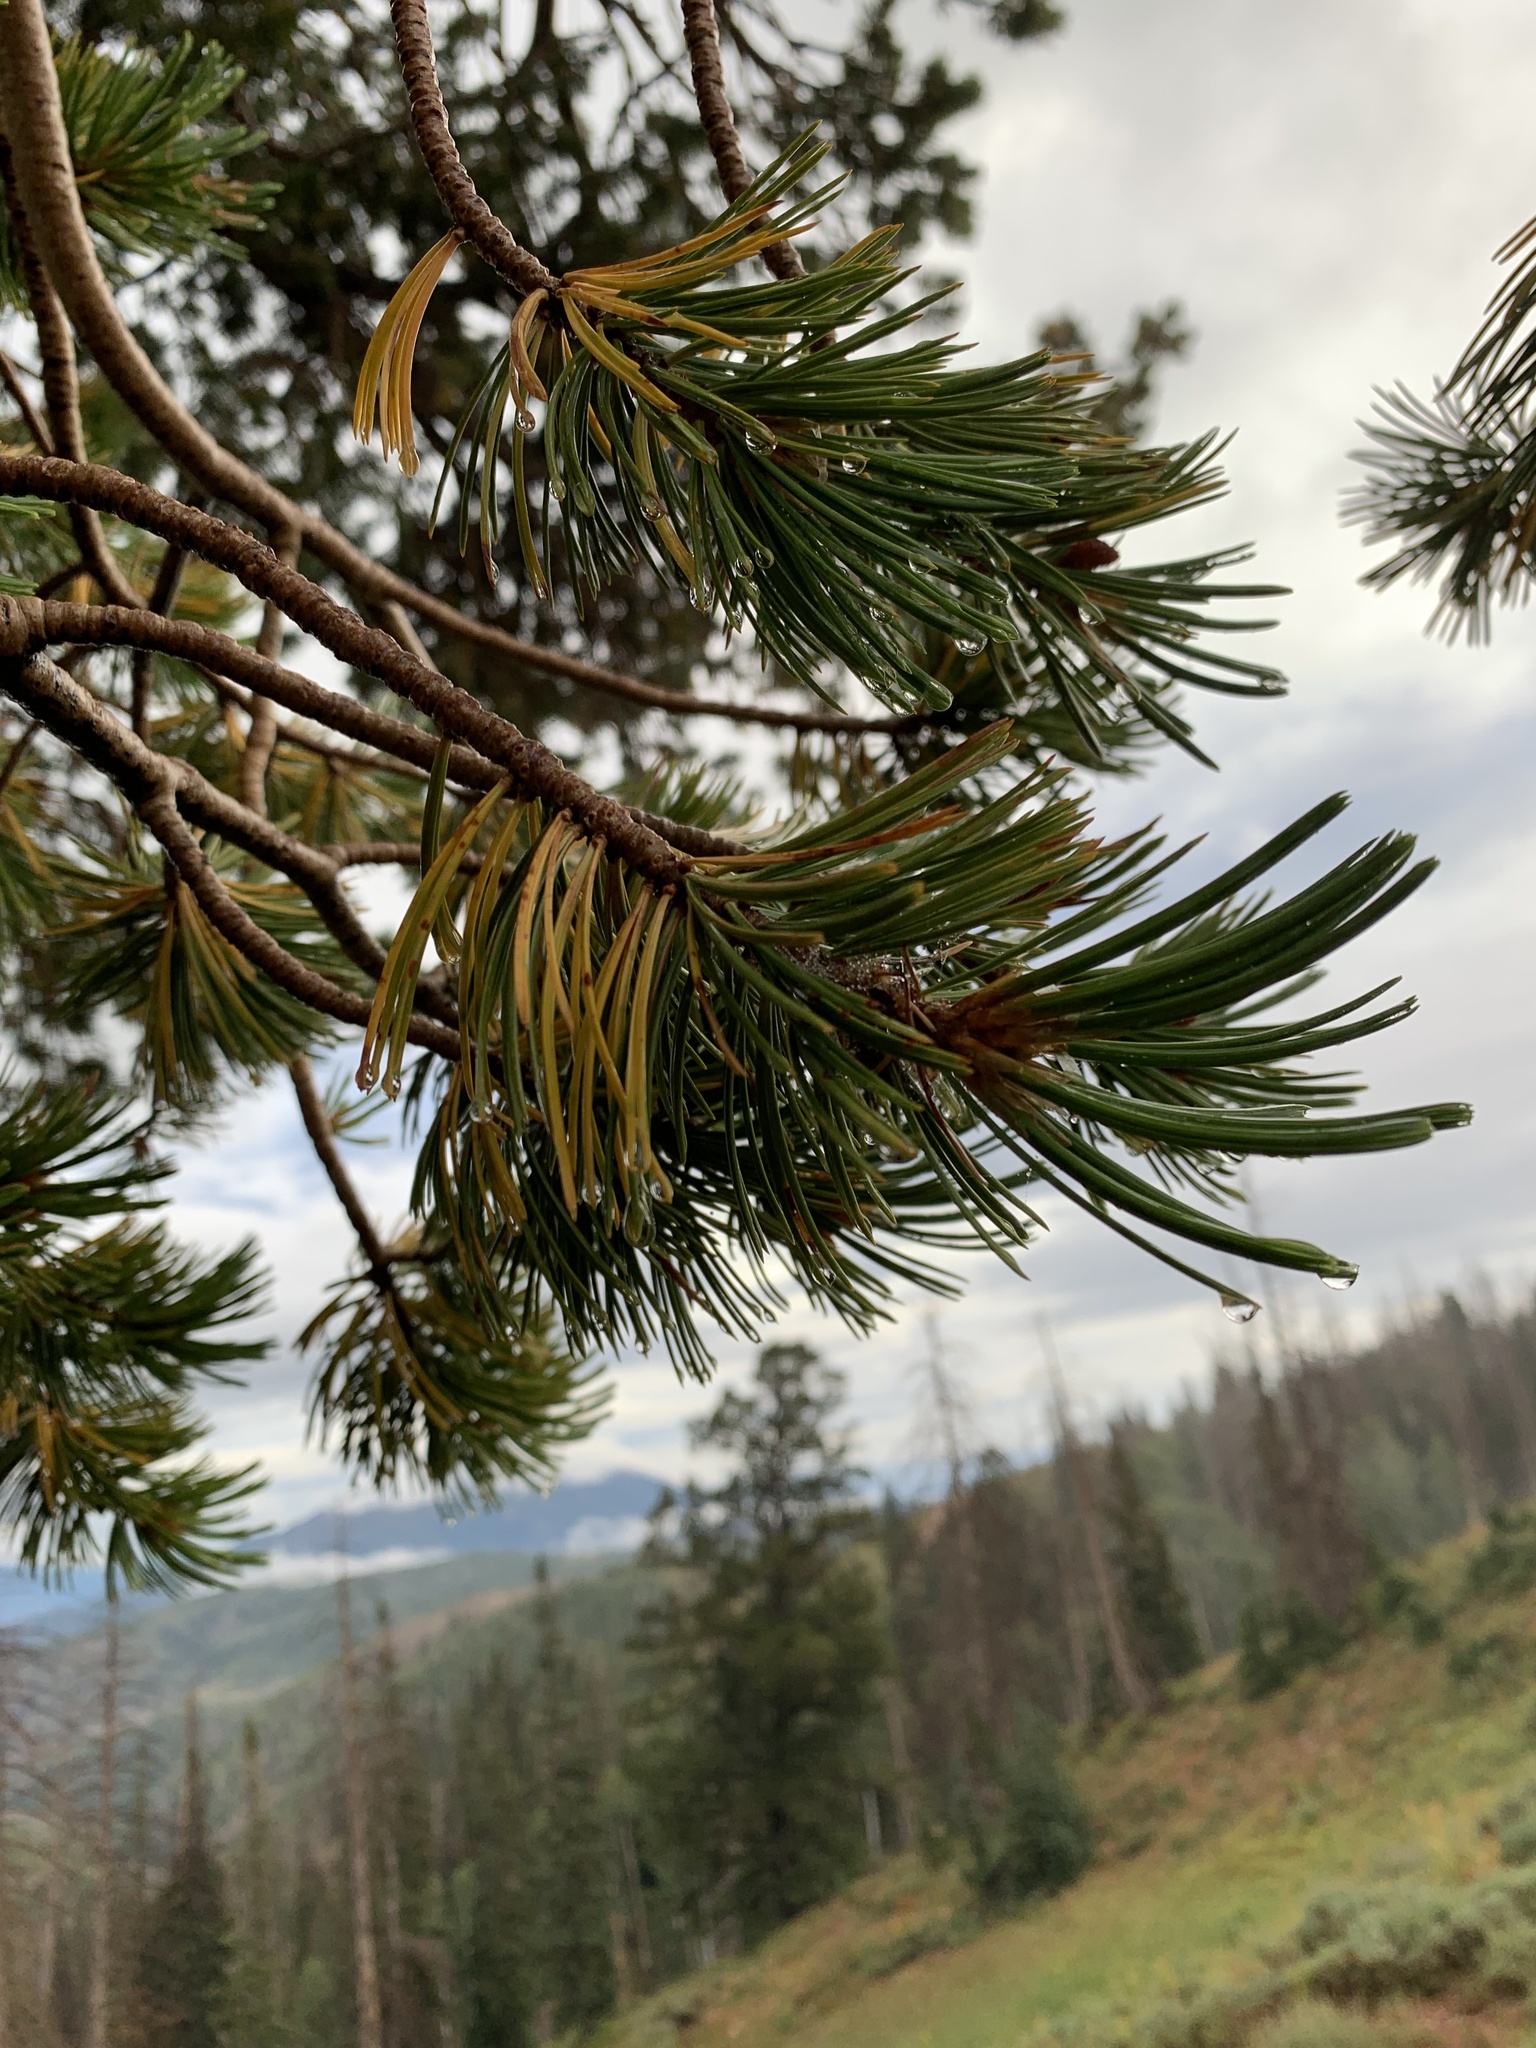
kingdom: Plantae
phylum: Tracheophyta
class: Pinopsida
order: Pinales
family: Pinaceae
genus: Pinus
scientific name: Pinus flexilis
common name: Limber pine
